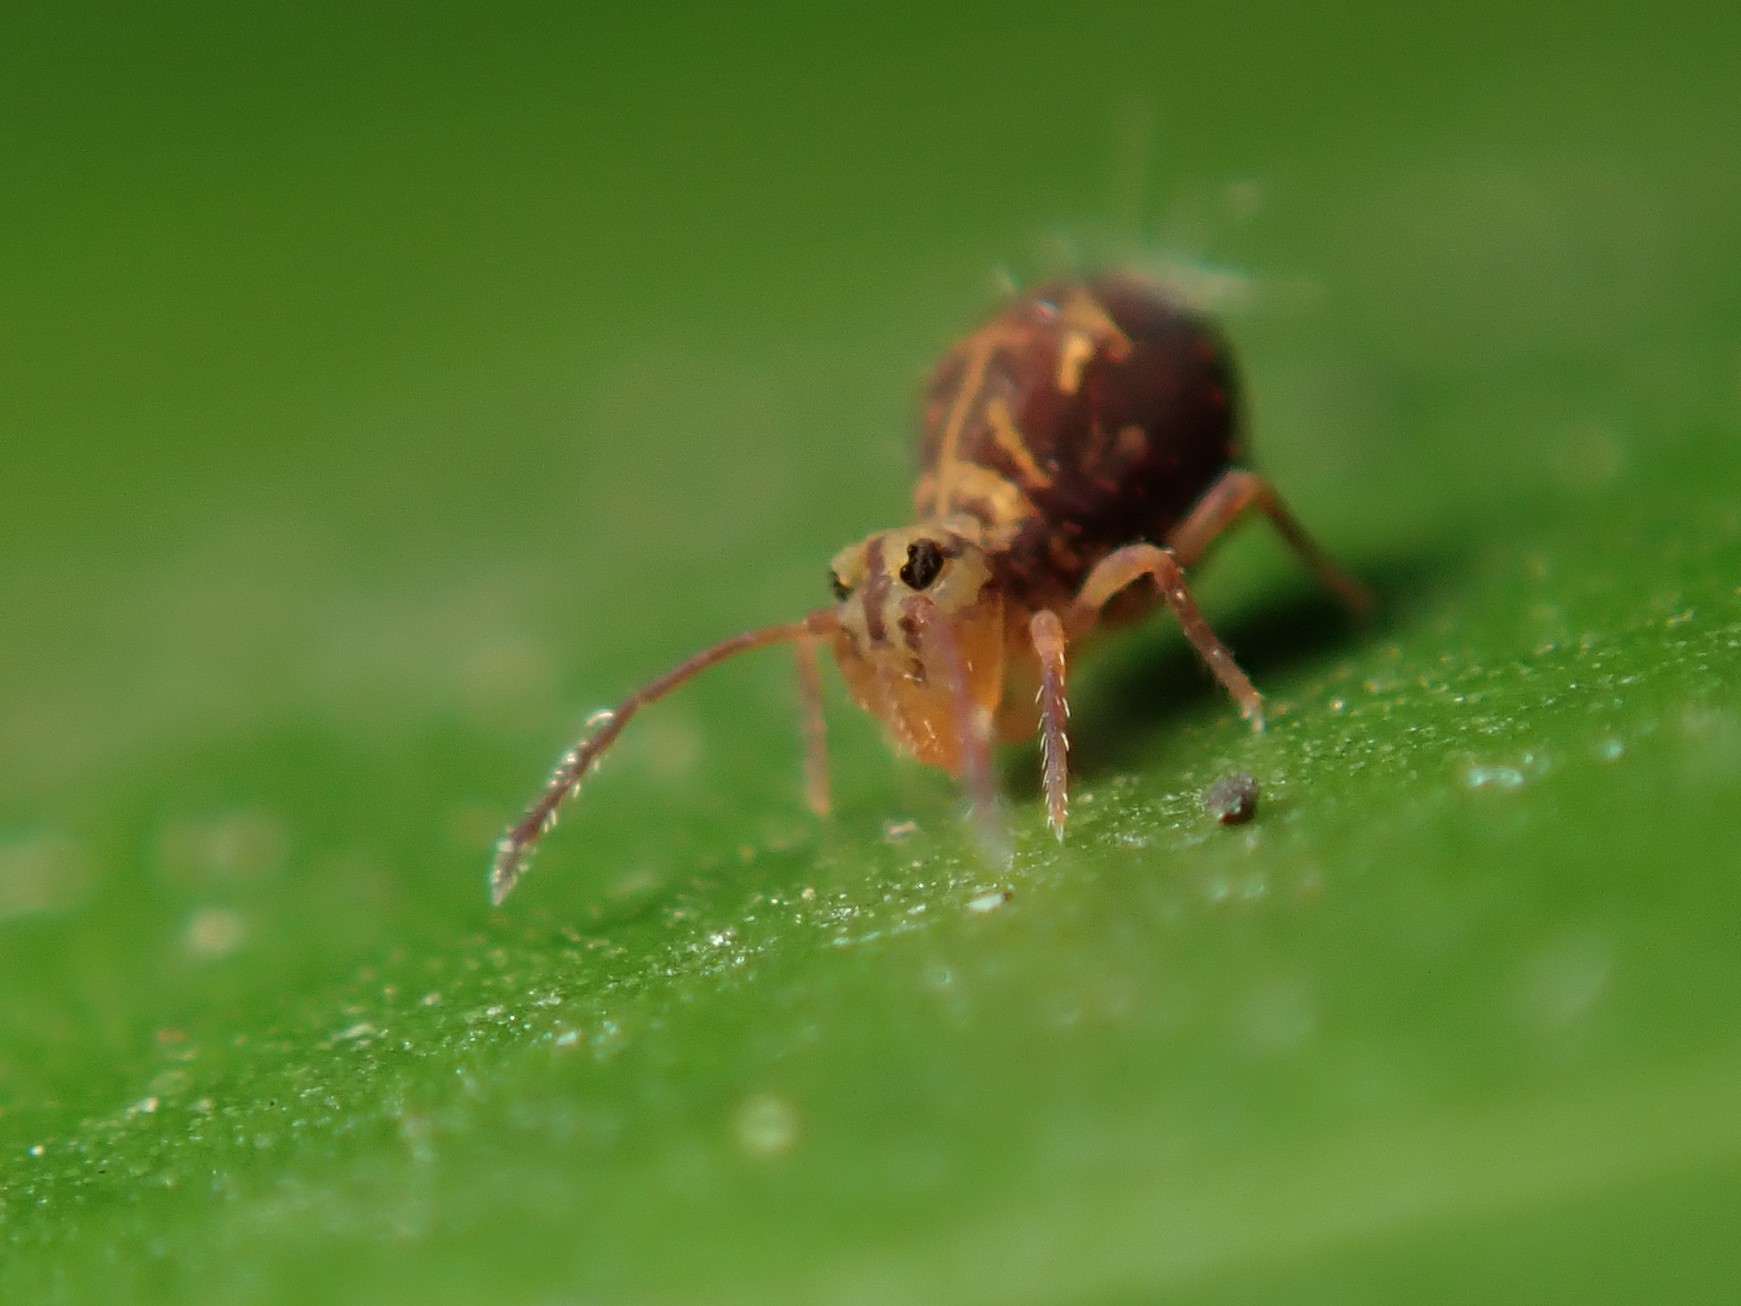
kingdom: Animalia
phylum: Arthropoda
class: Collembola
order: Symphypleona
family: Dicyrtomidae
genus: Dicyrtomina
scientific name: Dicyrtomina ornata
